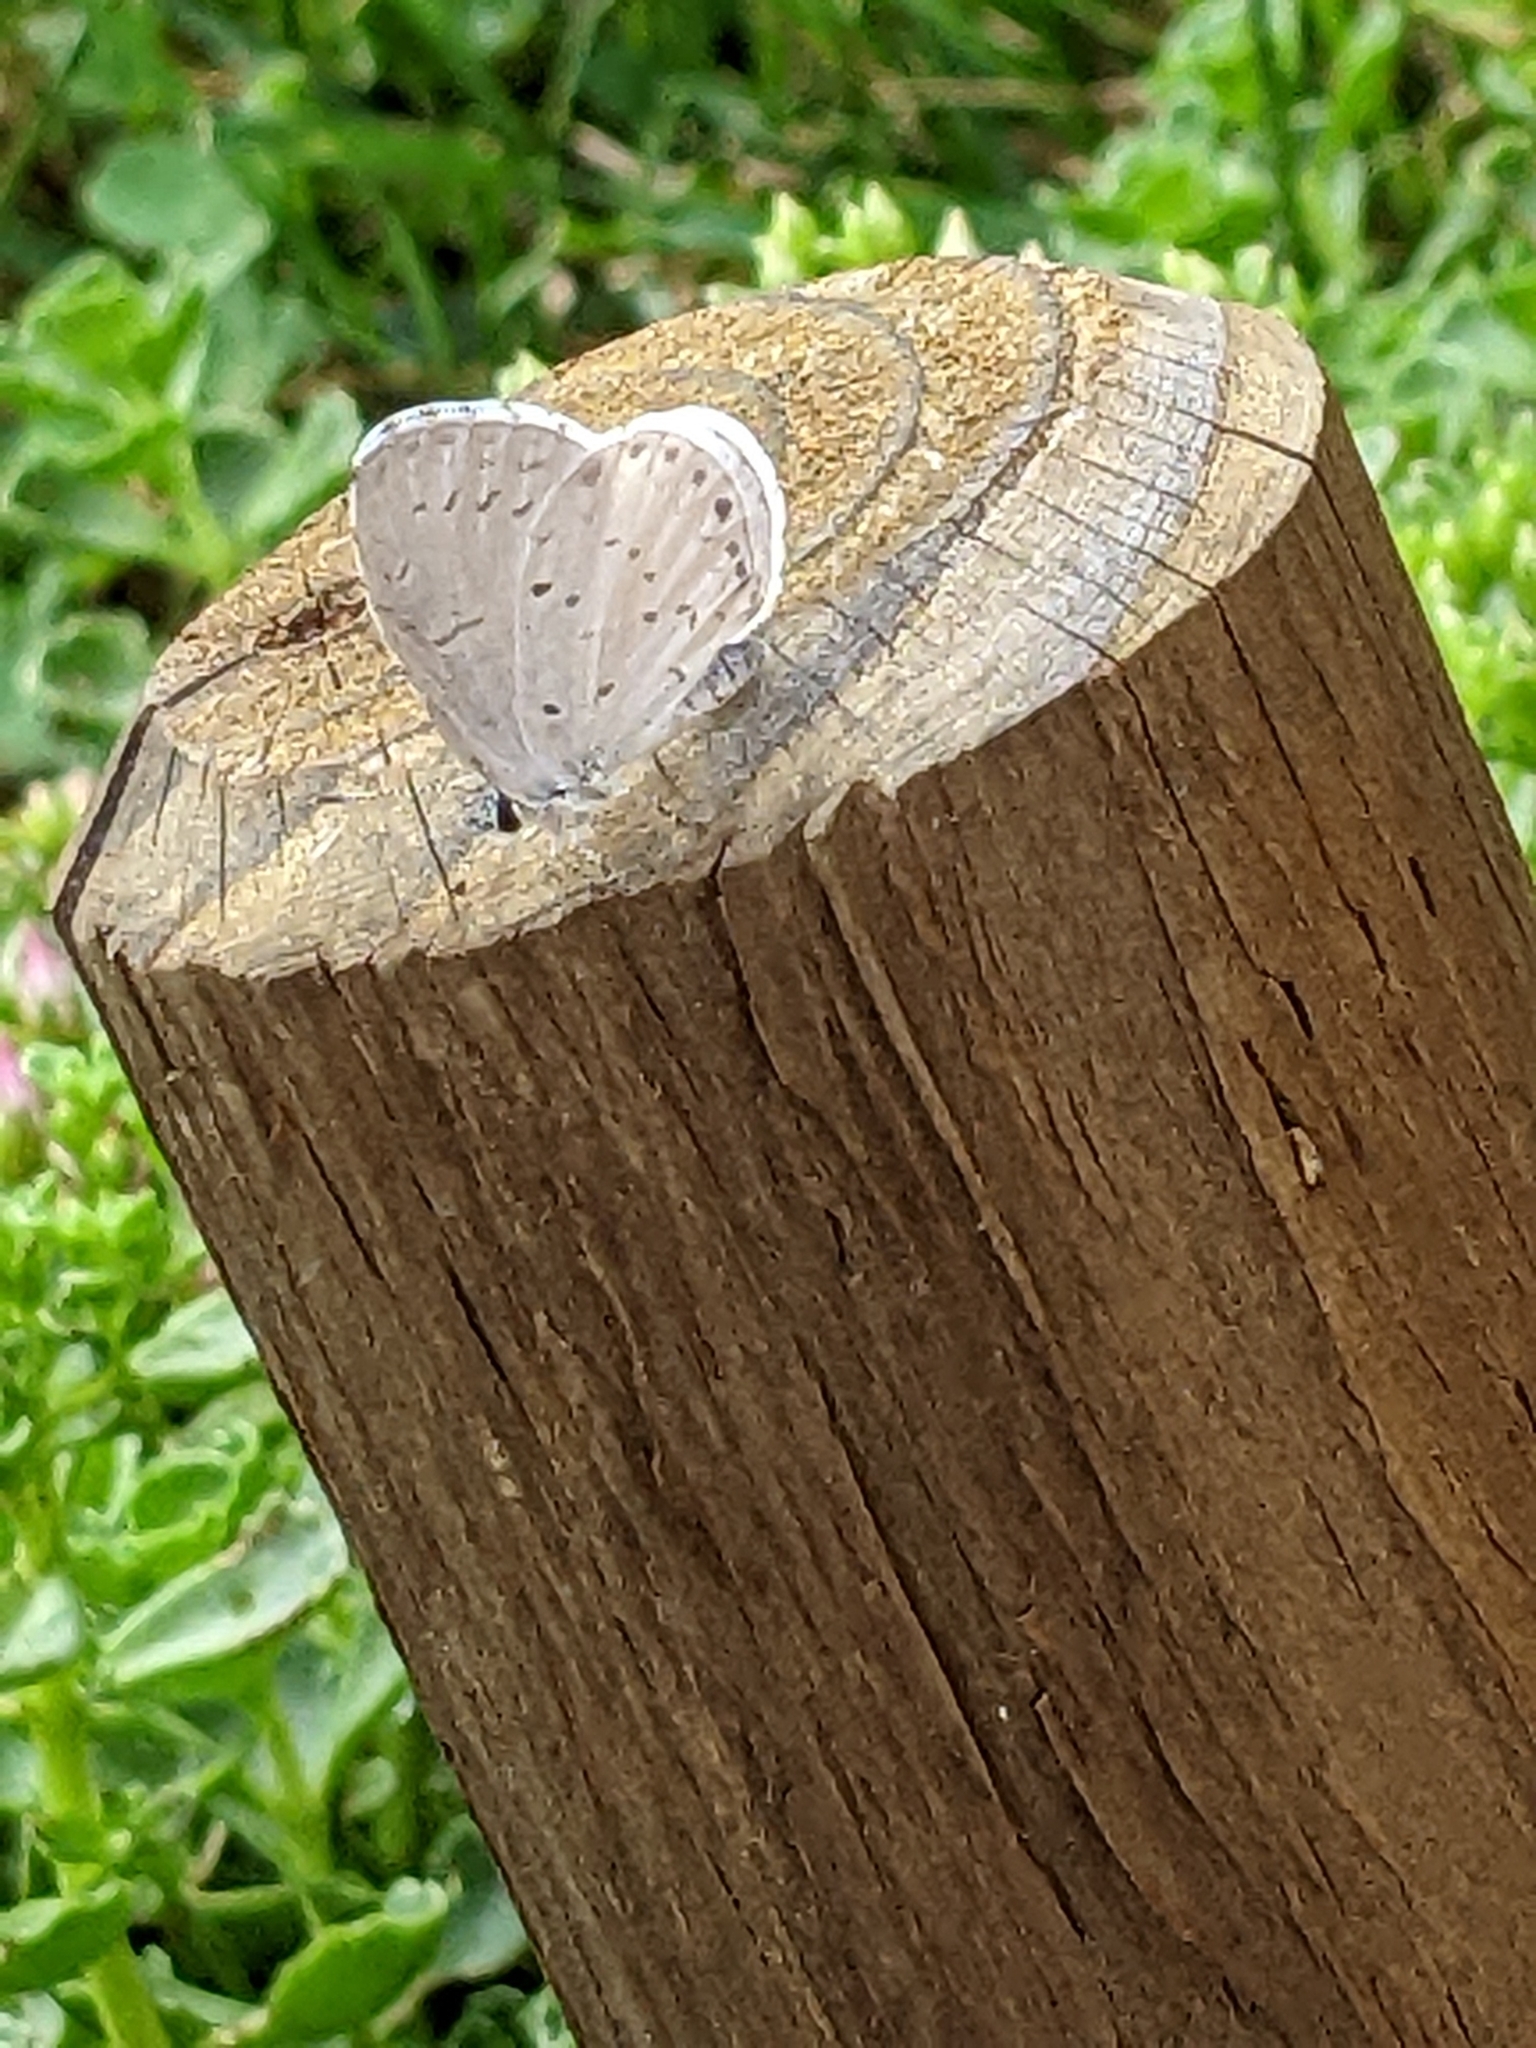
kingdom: Animalia
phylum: Arthropoda
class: Insecta
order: Lepidoptera
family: Lycaenidae
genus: Cyaniris
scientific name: Cyaniris neglecta
